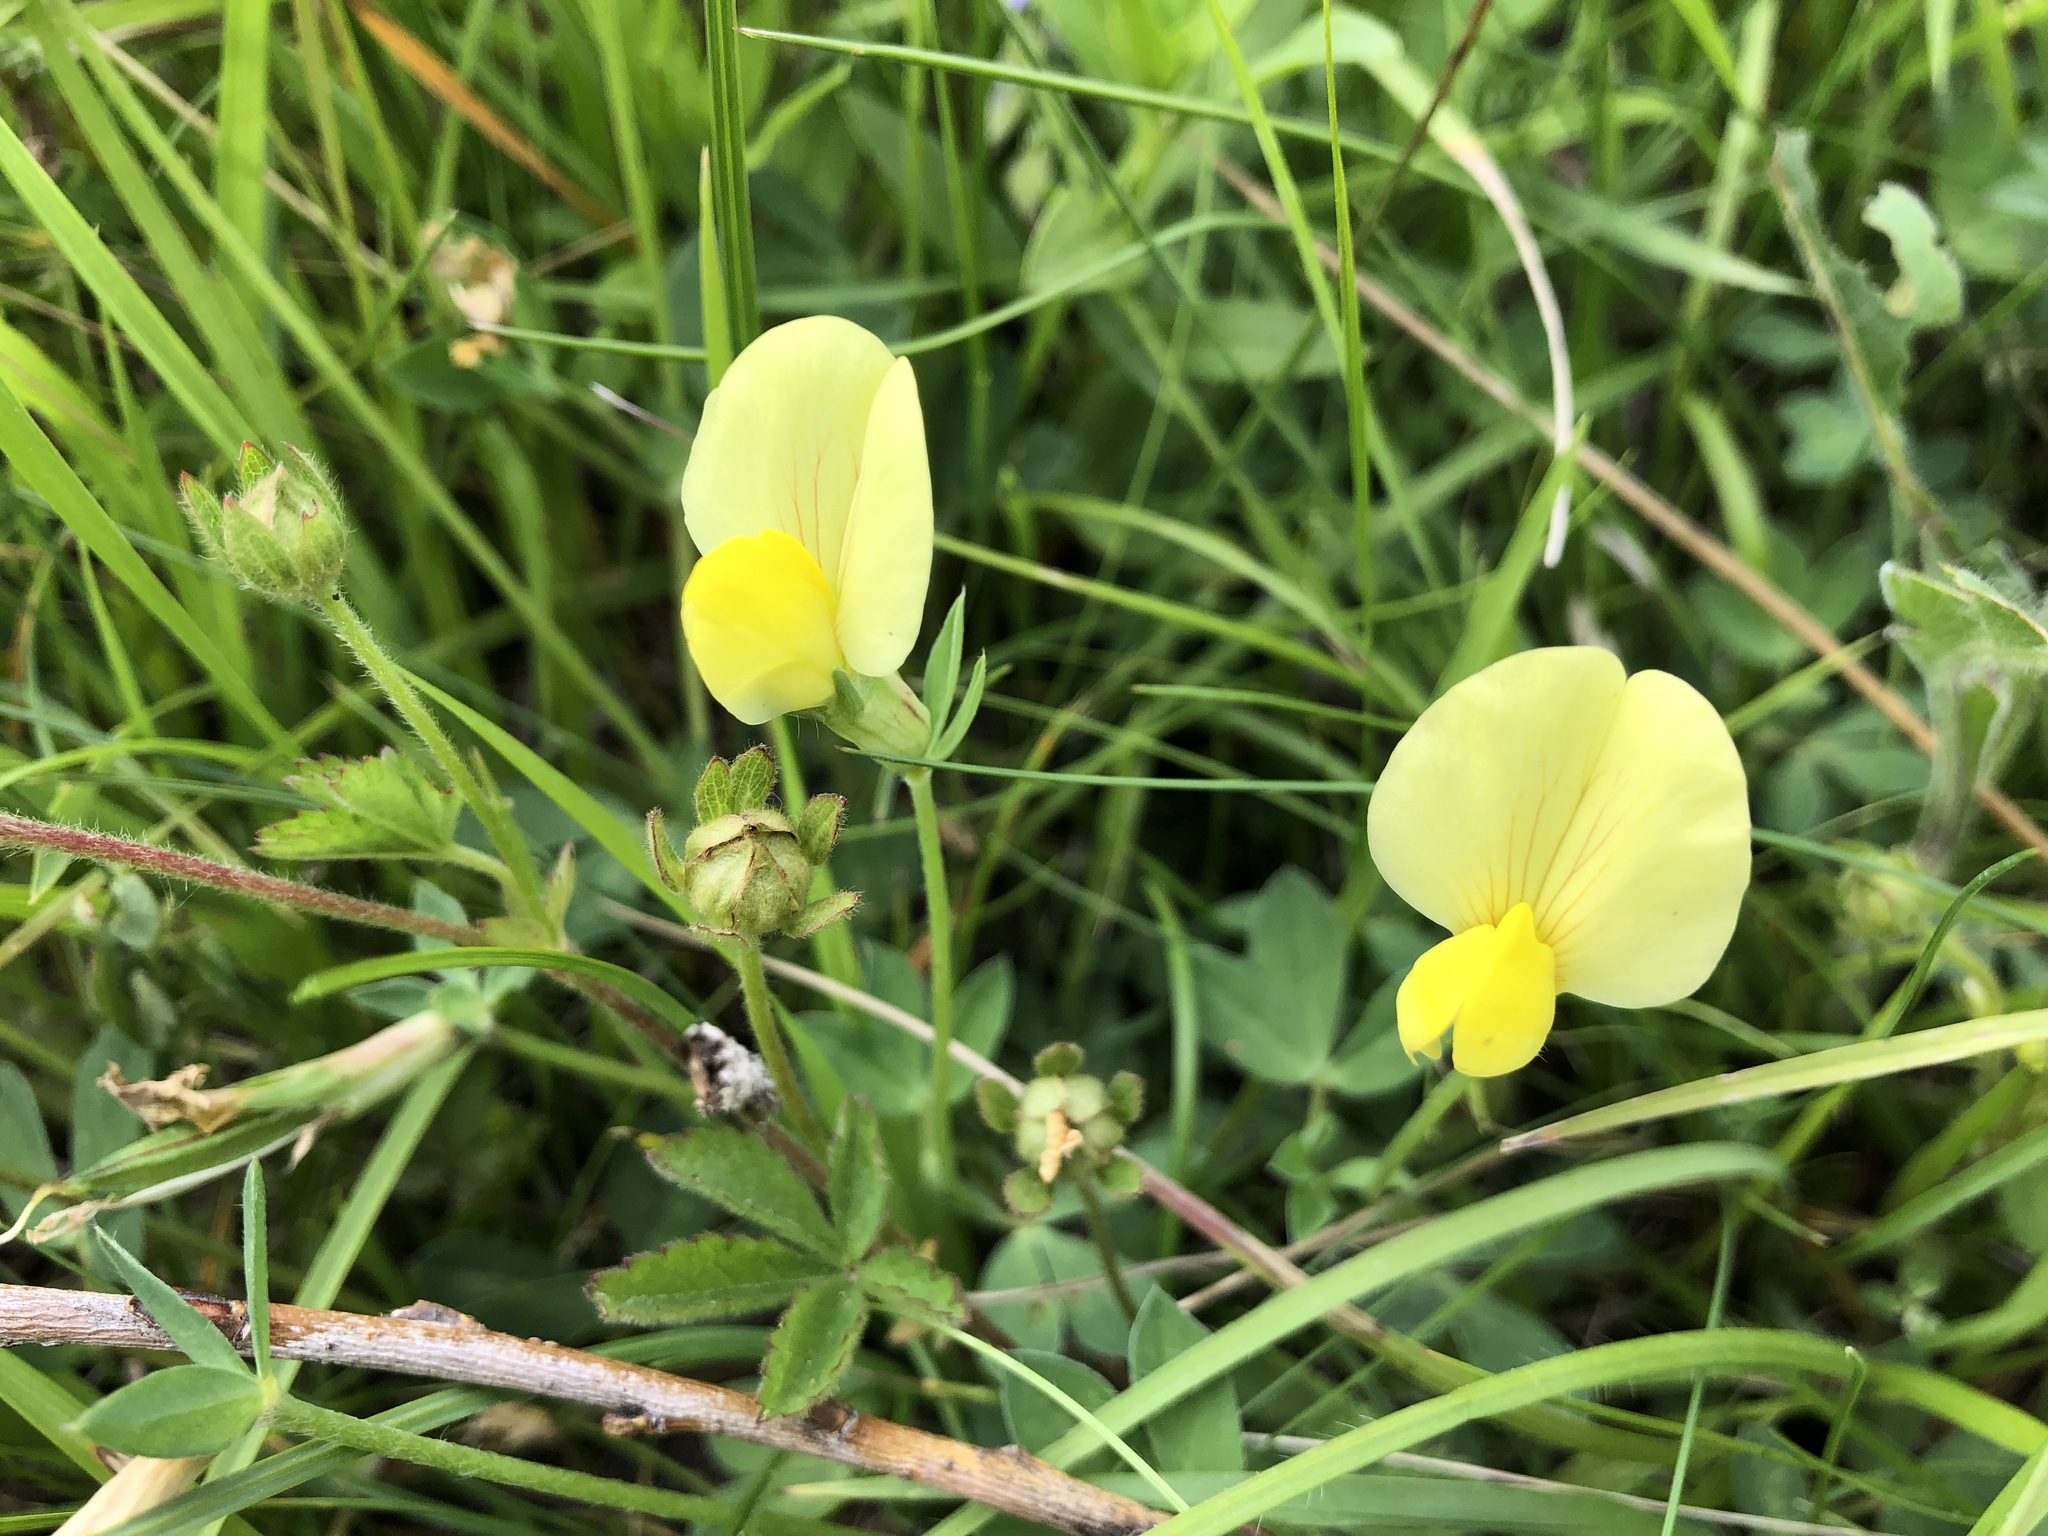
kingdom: Plantae
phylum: Tracheophyta
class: Magnoliopsida
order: Fabales
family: Fabaceae
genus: Lotus
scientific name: Lotus maritimus
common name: Dragon's-teeth
